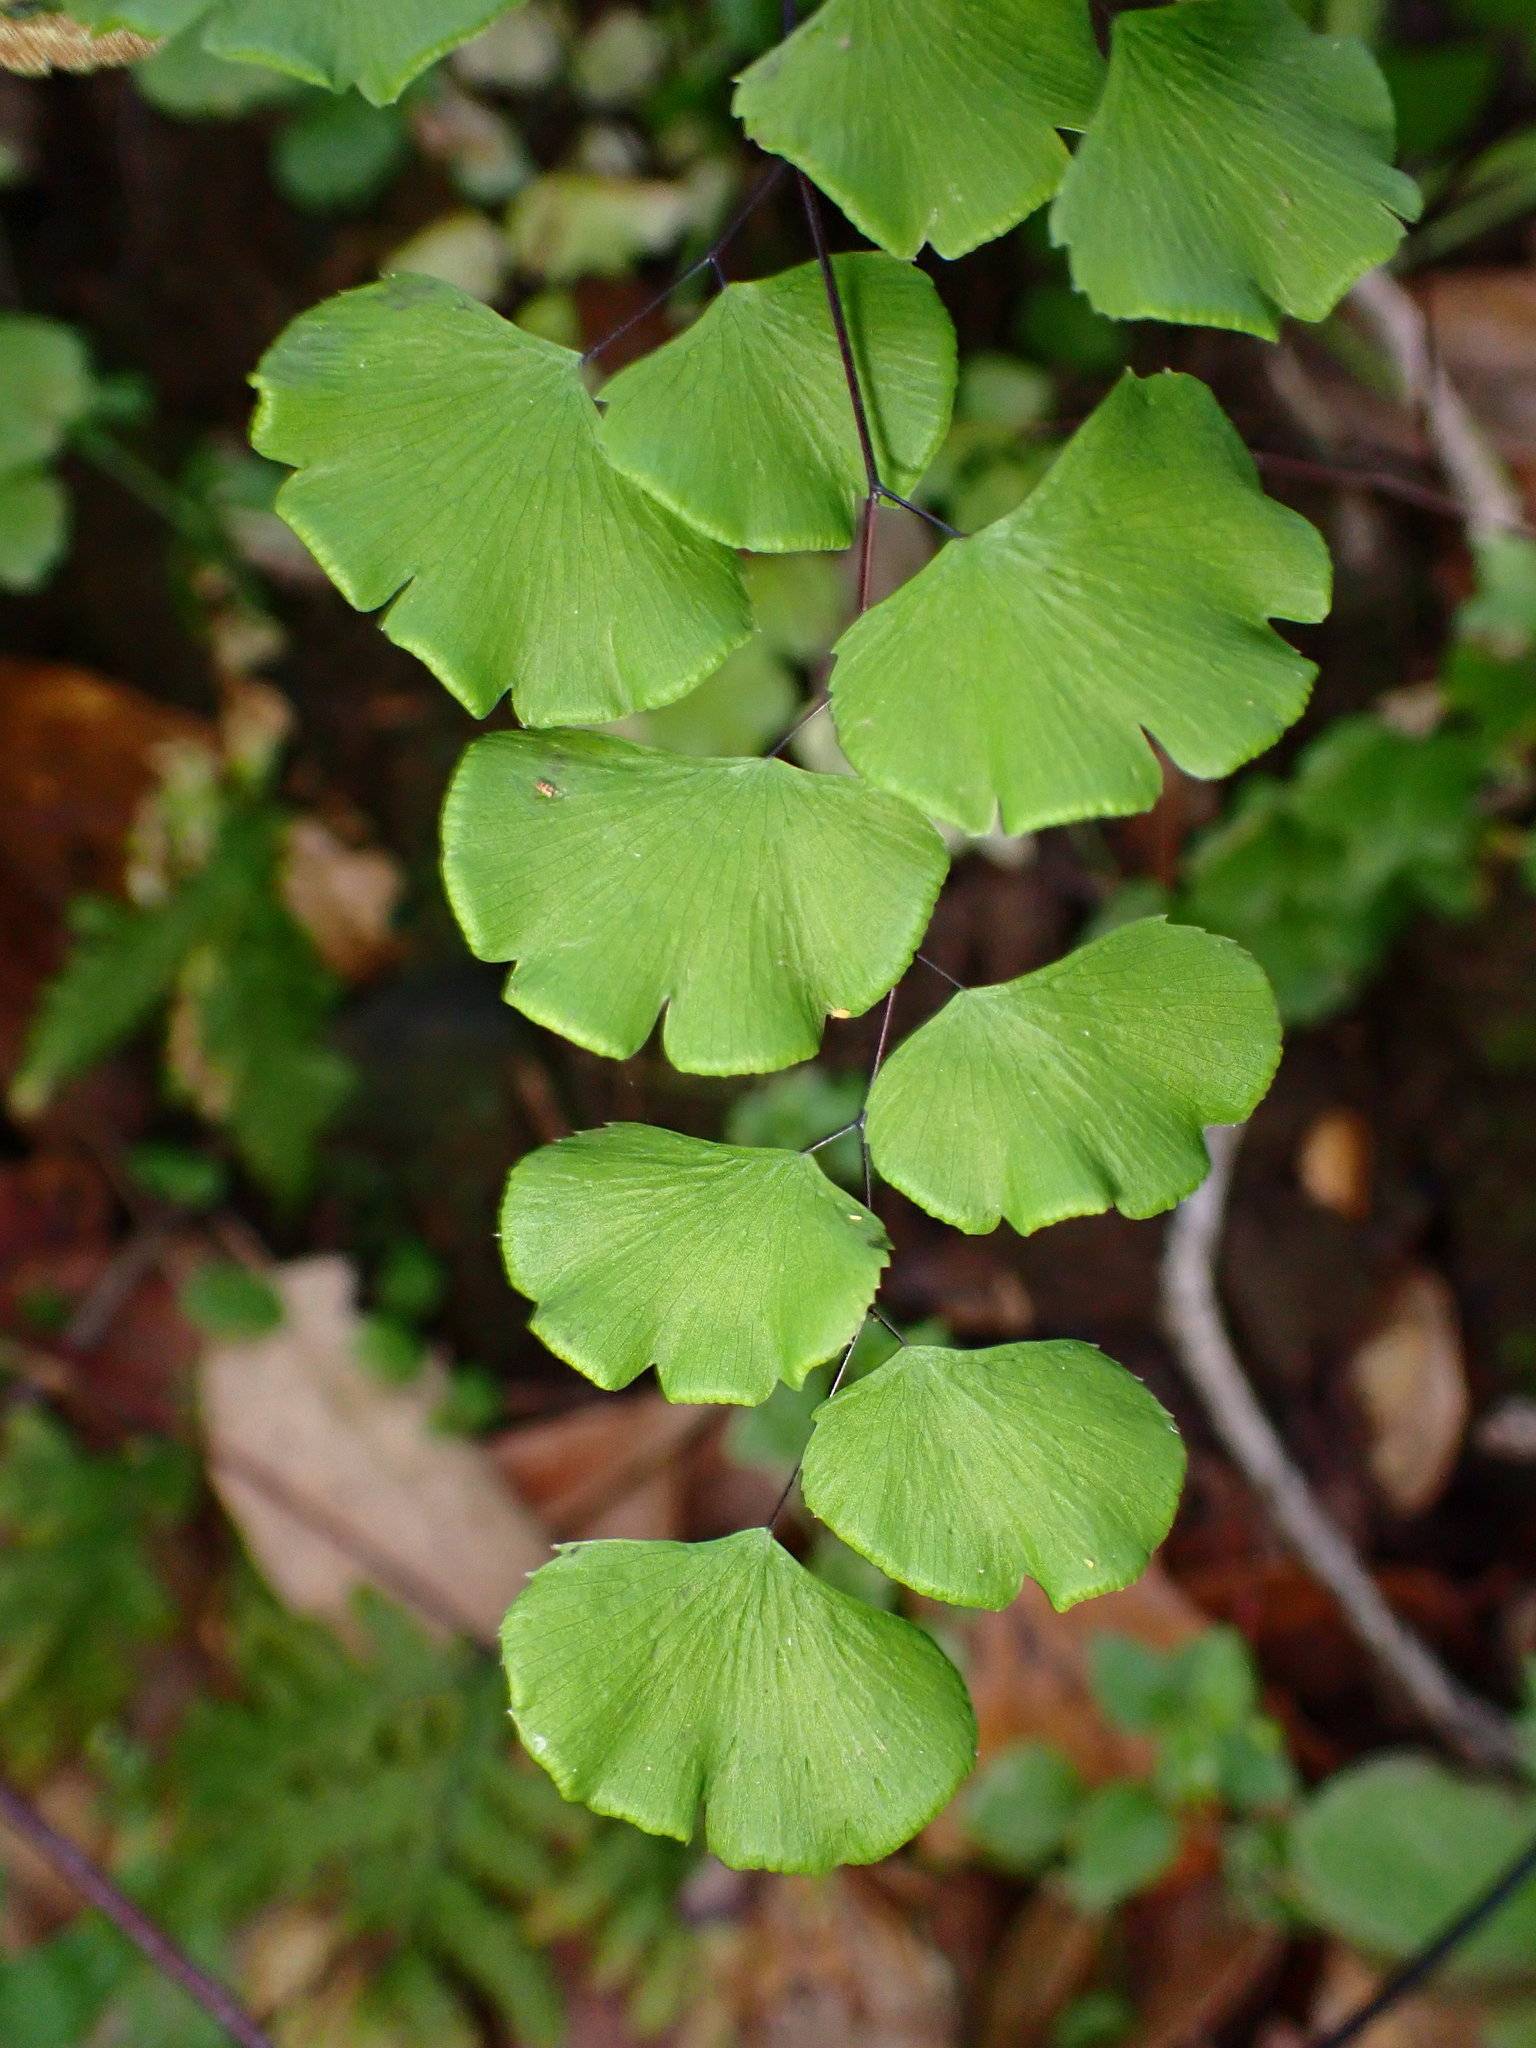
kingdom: Plantae
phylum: Tracheophyta
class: Polypodiopsida
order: Polypodiales
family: Pteridaceae
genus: Adiantum
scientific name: Adiantum jordanii
